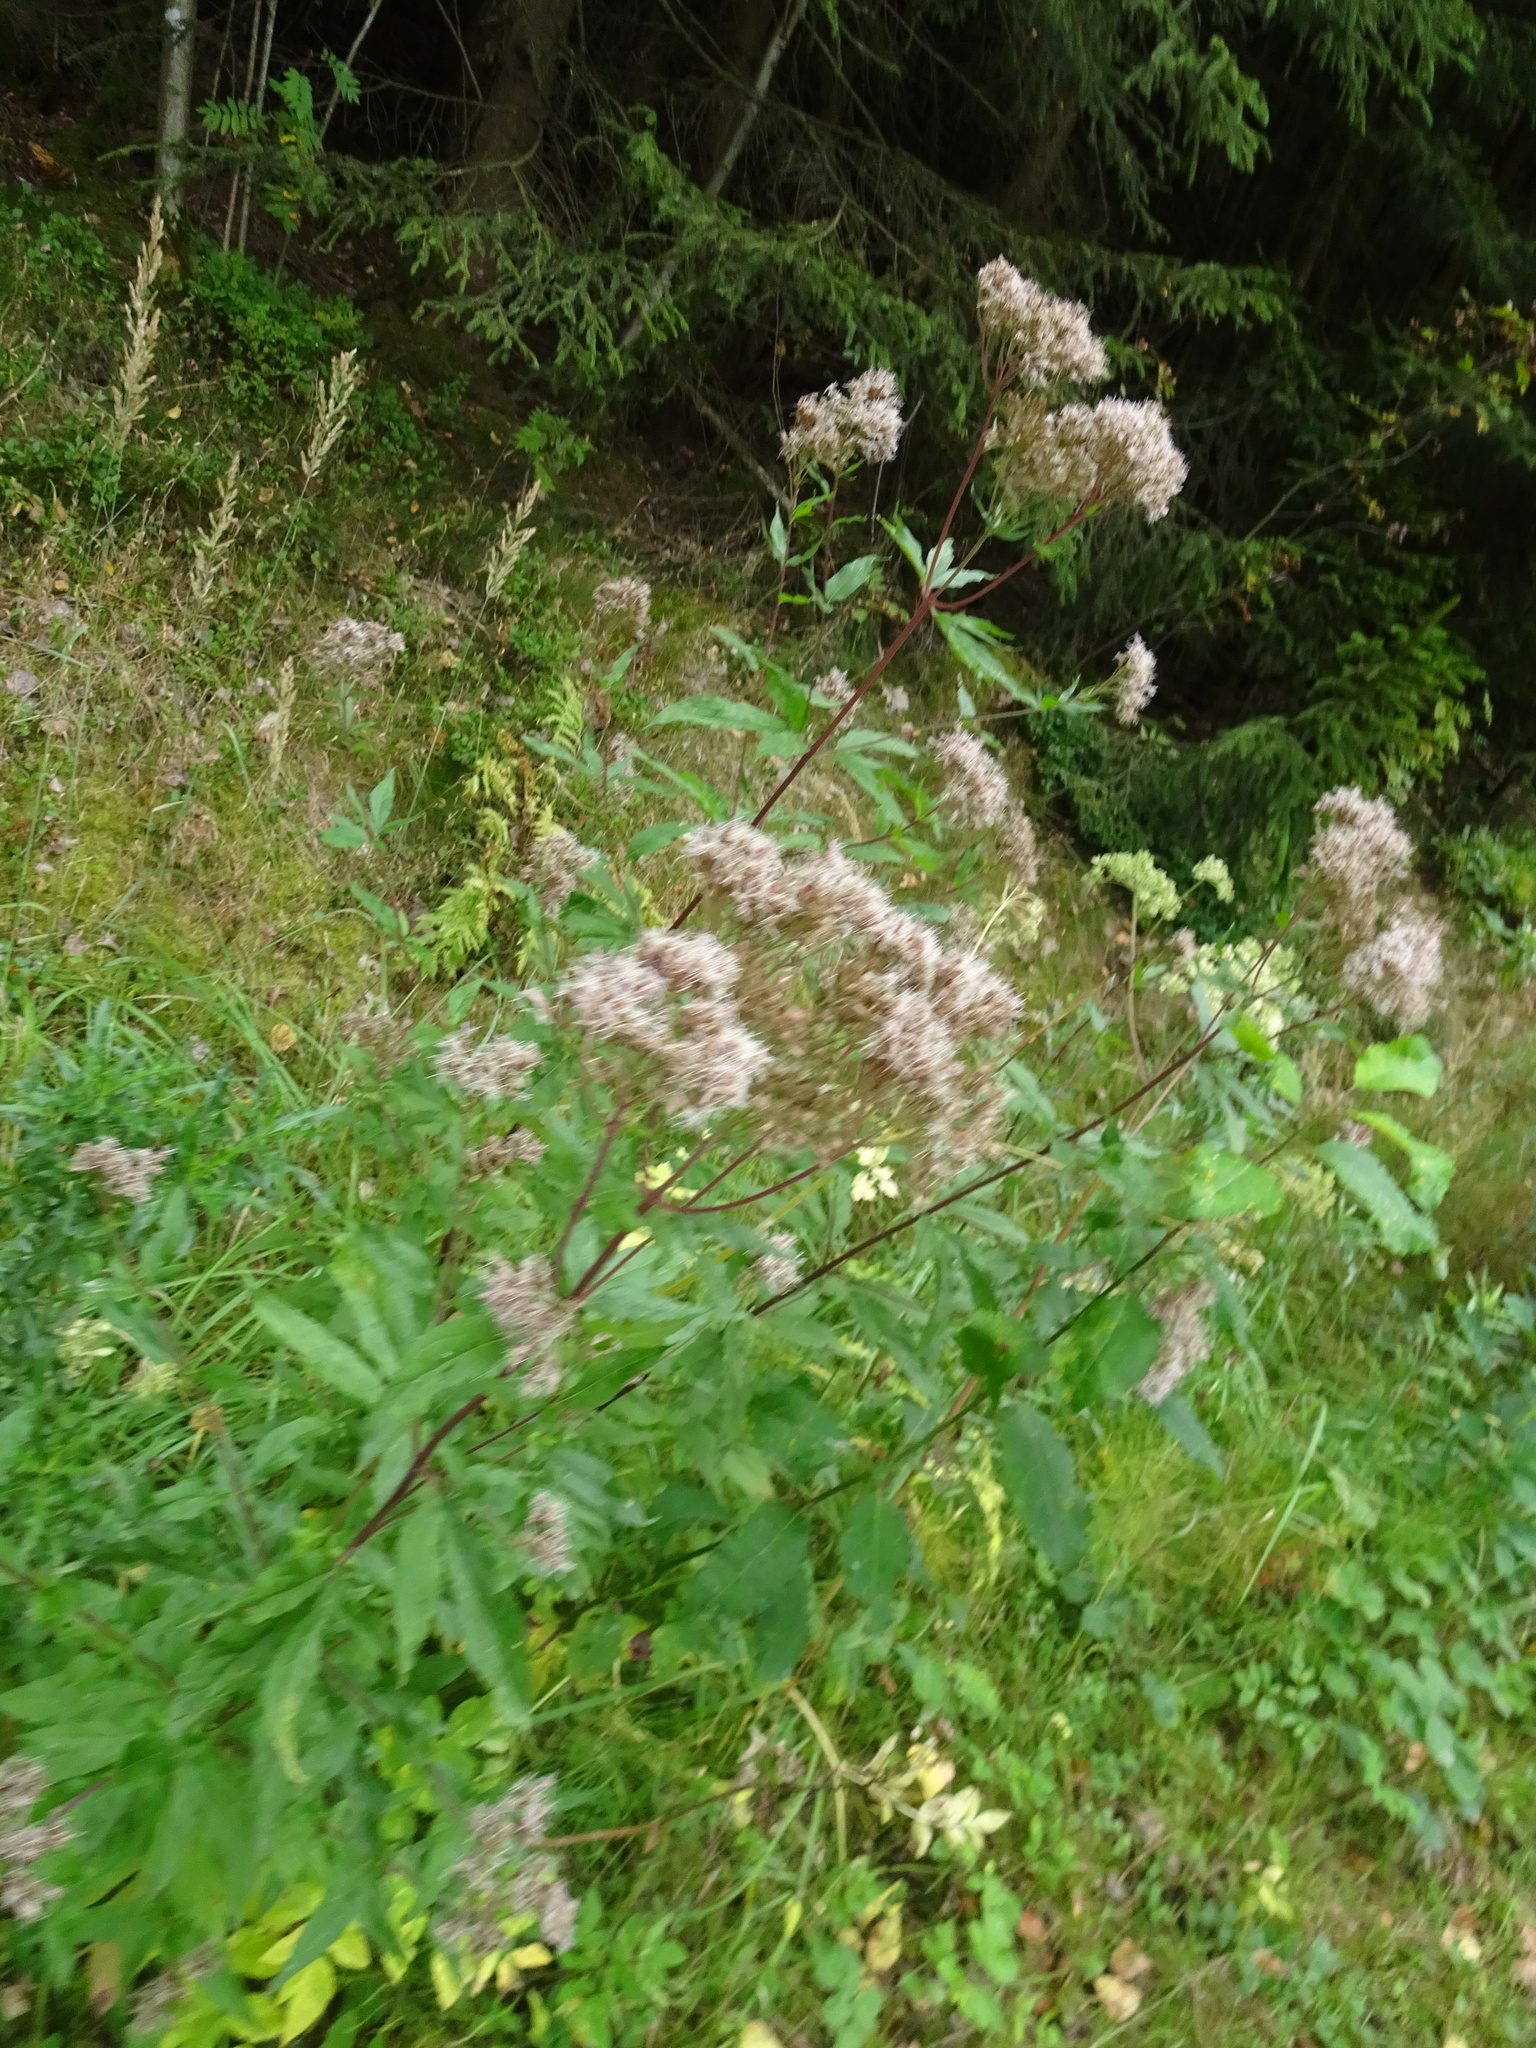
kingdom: Plantae
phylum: Tracheophyta
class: Magnoliopsida
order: Asterales
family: Asteraceae
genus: Eupatorium
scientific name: Eupatorium cannabinum
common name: Hemp-agrimony
